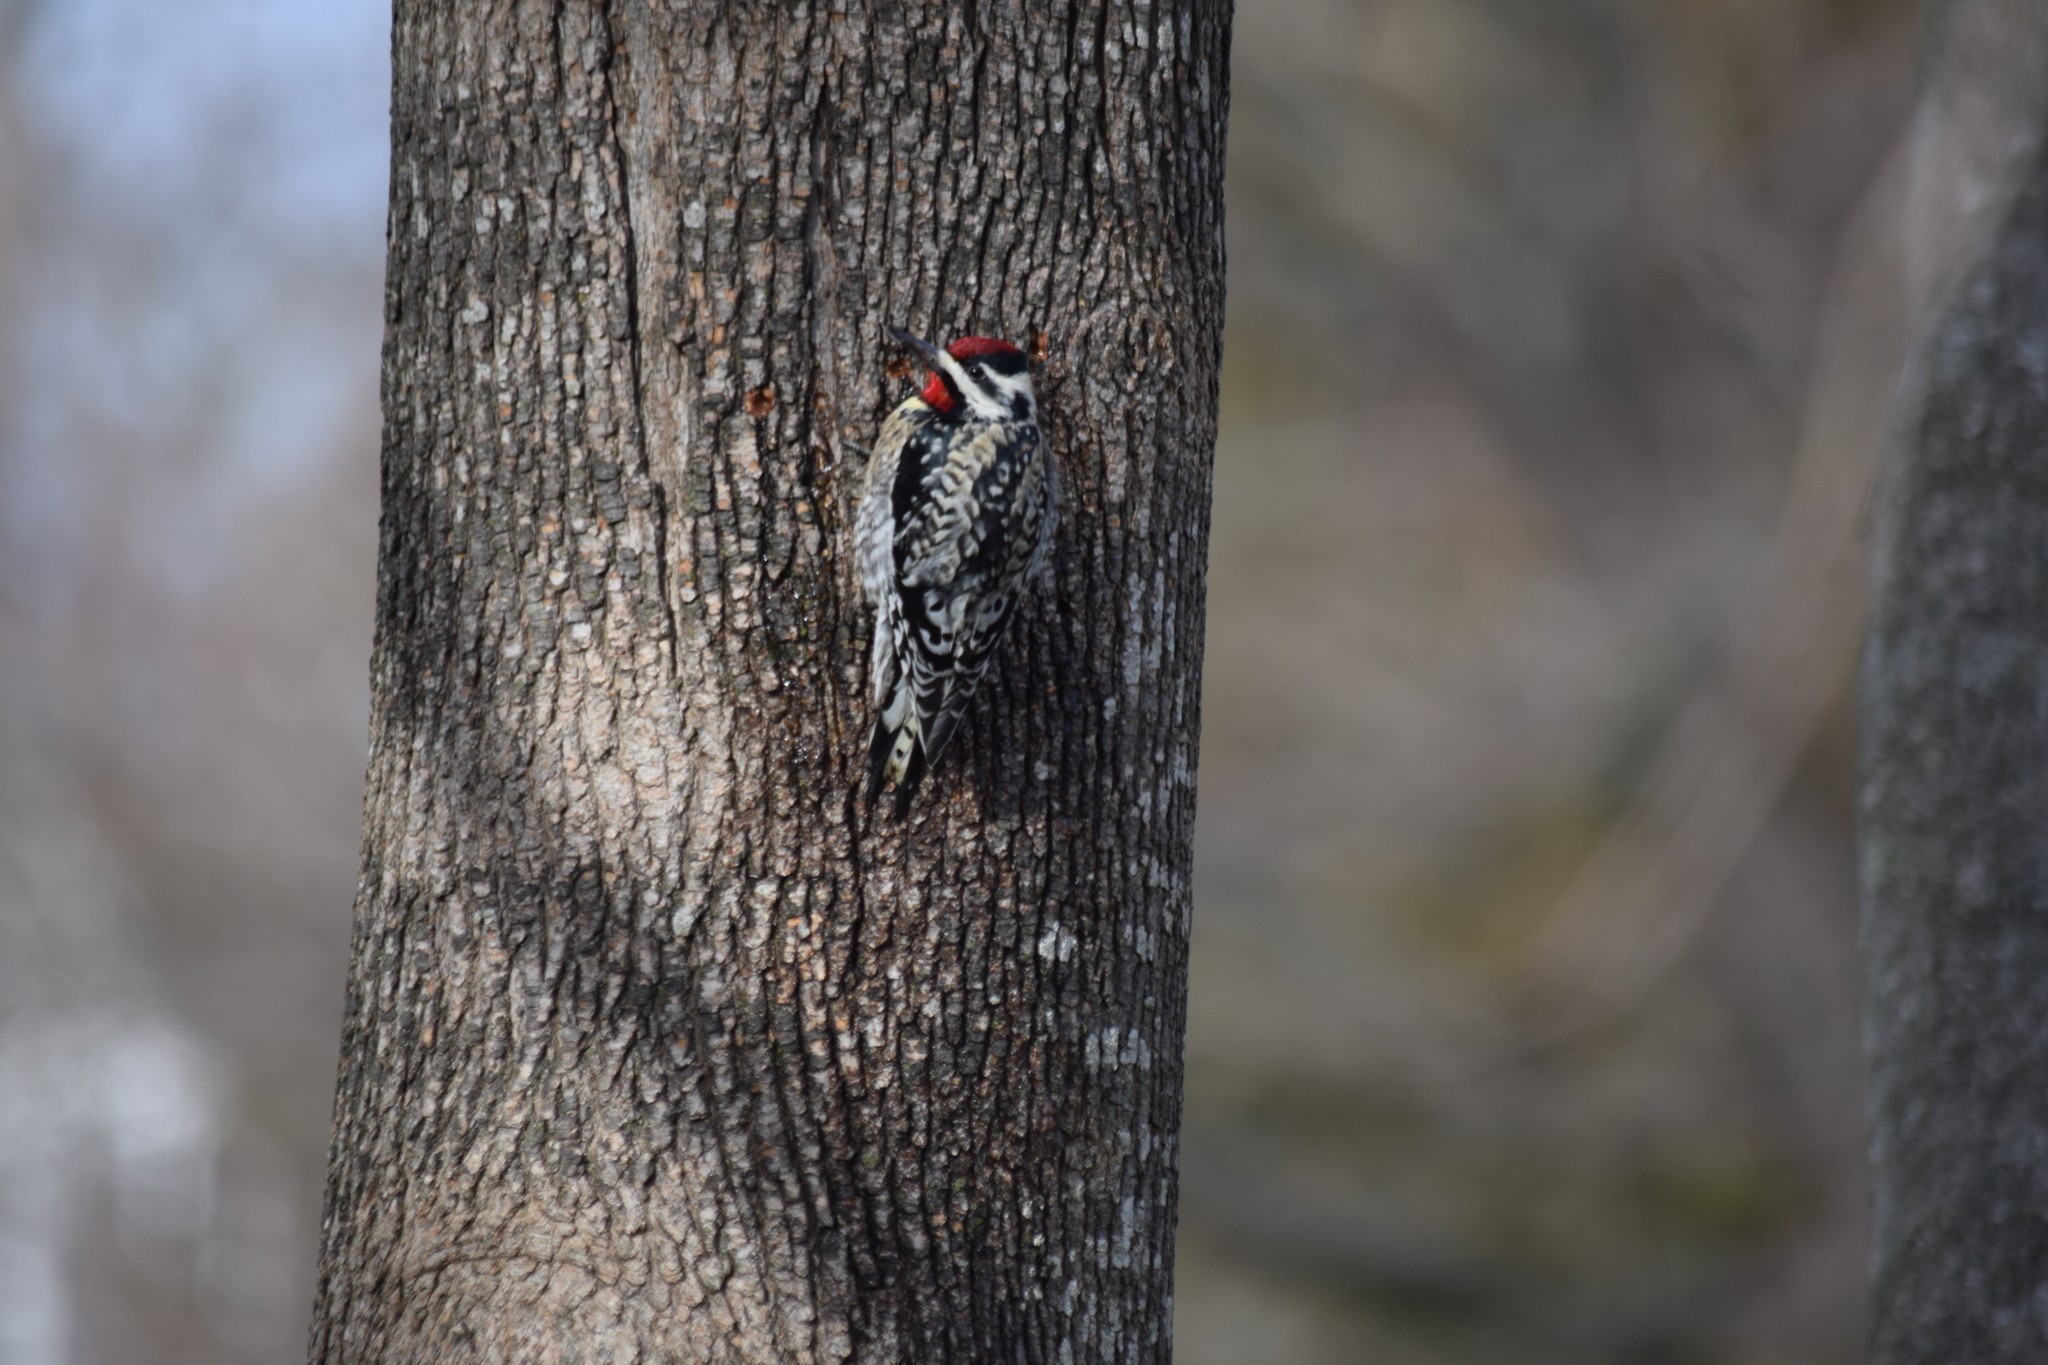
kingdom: Animalia
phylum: Chordata
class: Aves
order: Piciformes
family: Picidae
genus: Sphyrapicus
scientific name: Sphyrapicus varius
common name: Yellow-bellied sapsucker
